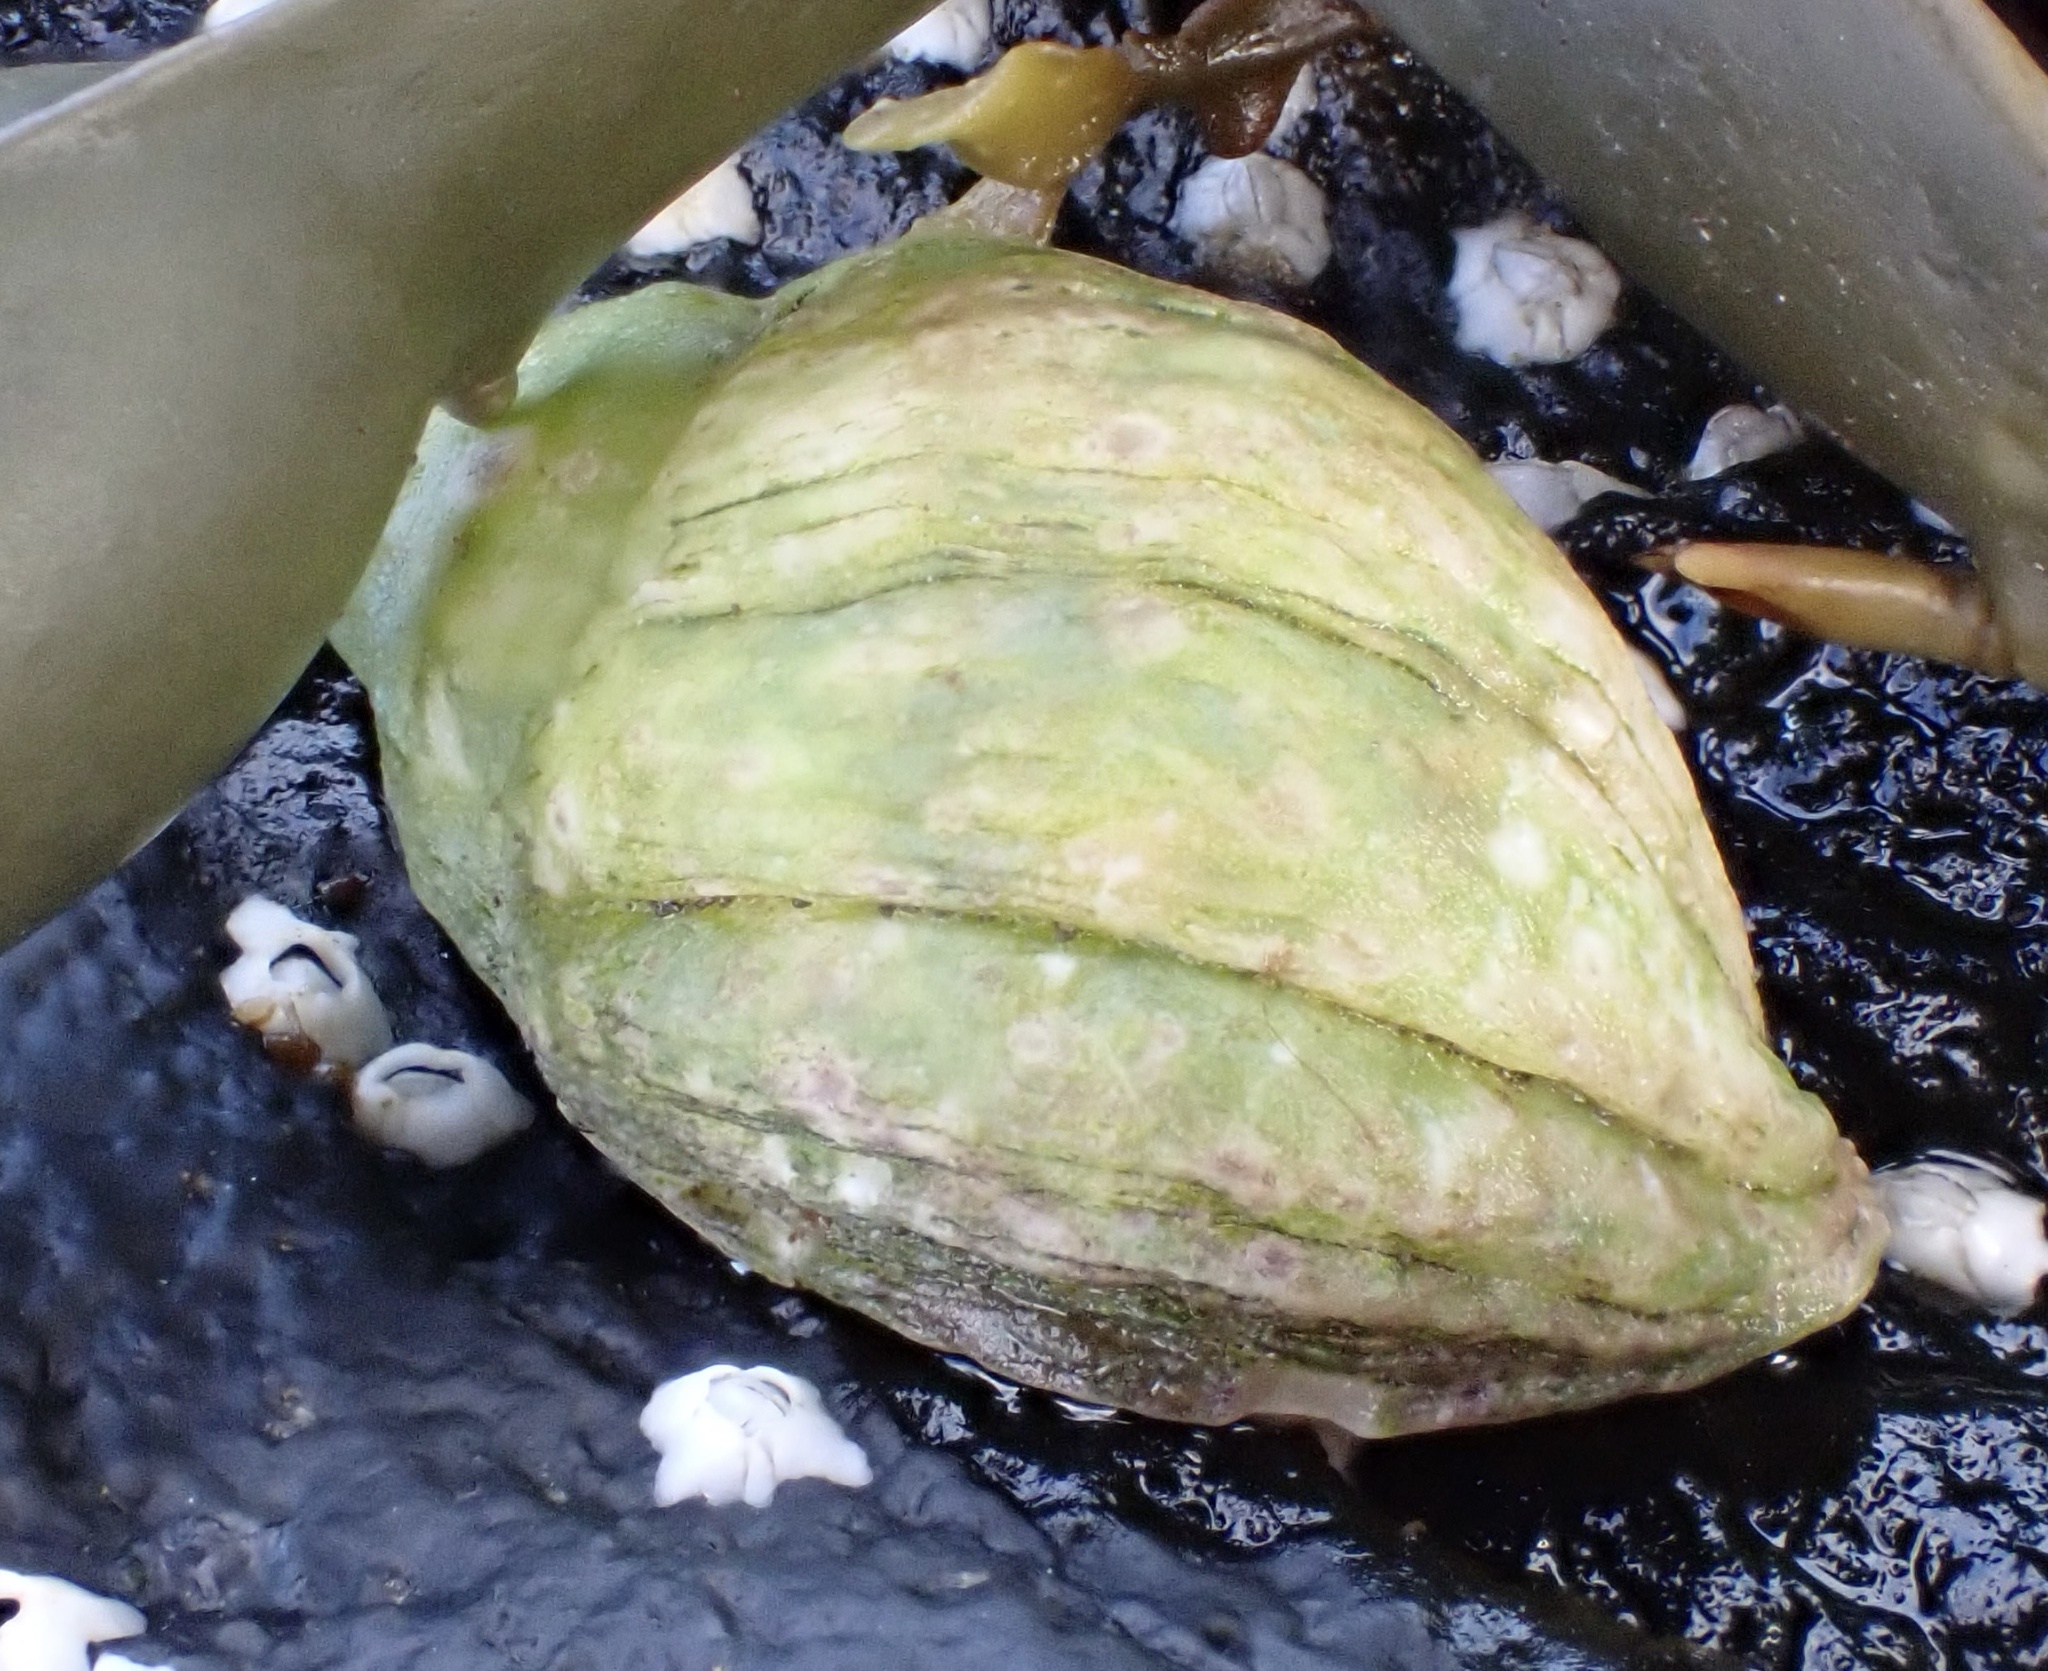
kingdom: Animalia
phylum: Mollusca
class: Gastropoda
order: Neogastropoda
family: Muricidae
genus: Nucella
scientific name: Nucella lapillus
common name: Dog whelk
